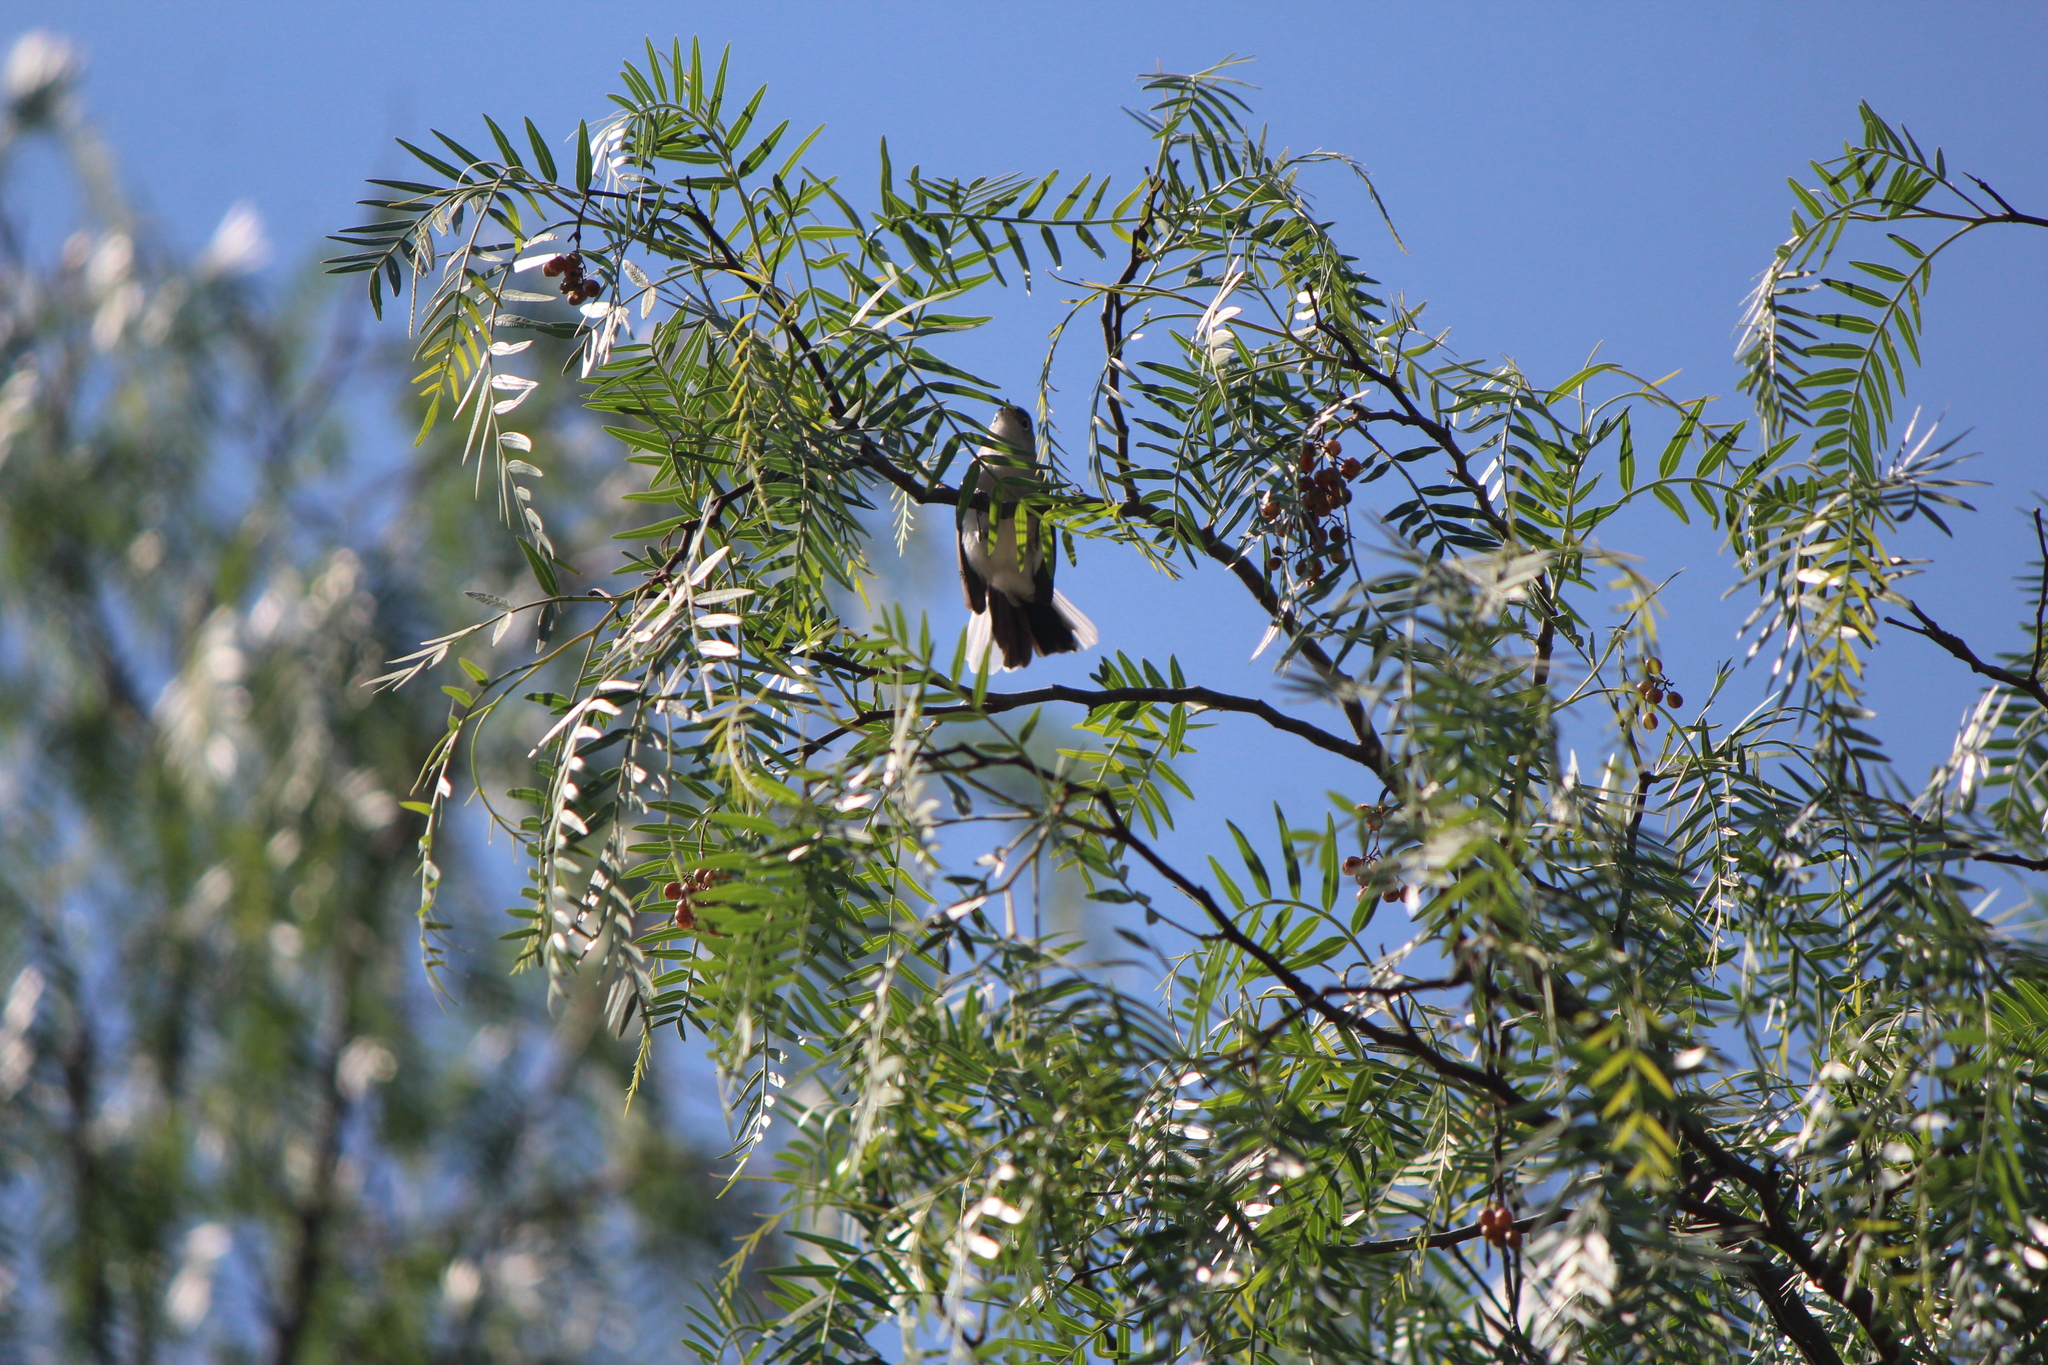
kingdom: Animalia
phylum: Chordata
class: Aves
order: Passeriformes
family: Polioptilidae
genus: Polioptila
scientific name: Polioptila caerulea
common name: Blue-gray gnatcatcher
